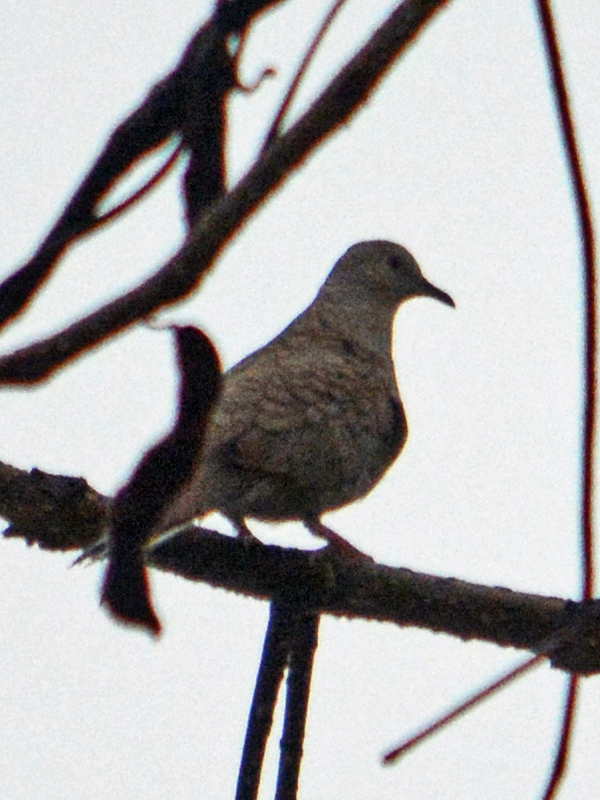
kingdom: Animalia
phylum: Chordata
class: Aves
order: Columbiformes
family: Columbidae
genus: Columbina
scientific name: Columbina inca
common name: Inca dove
